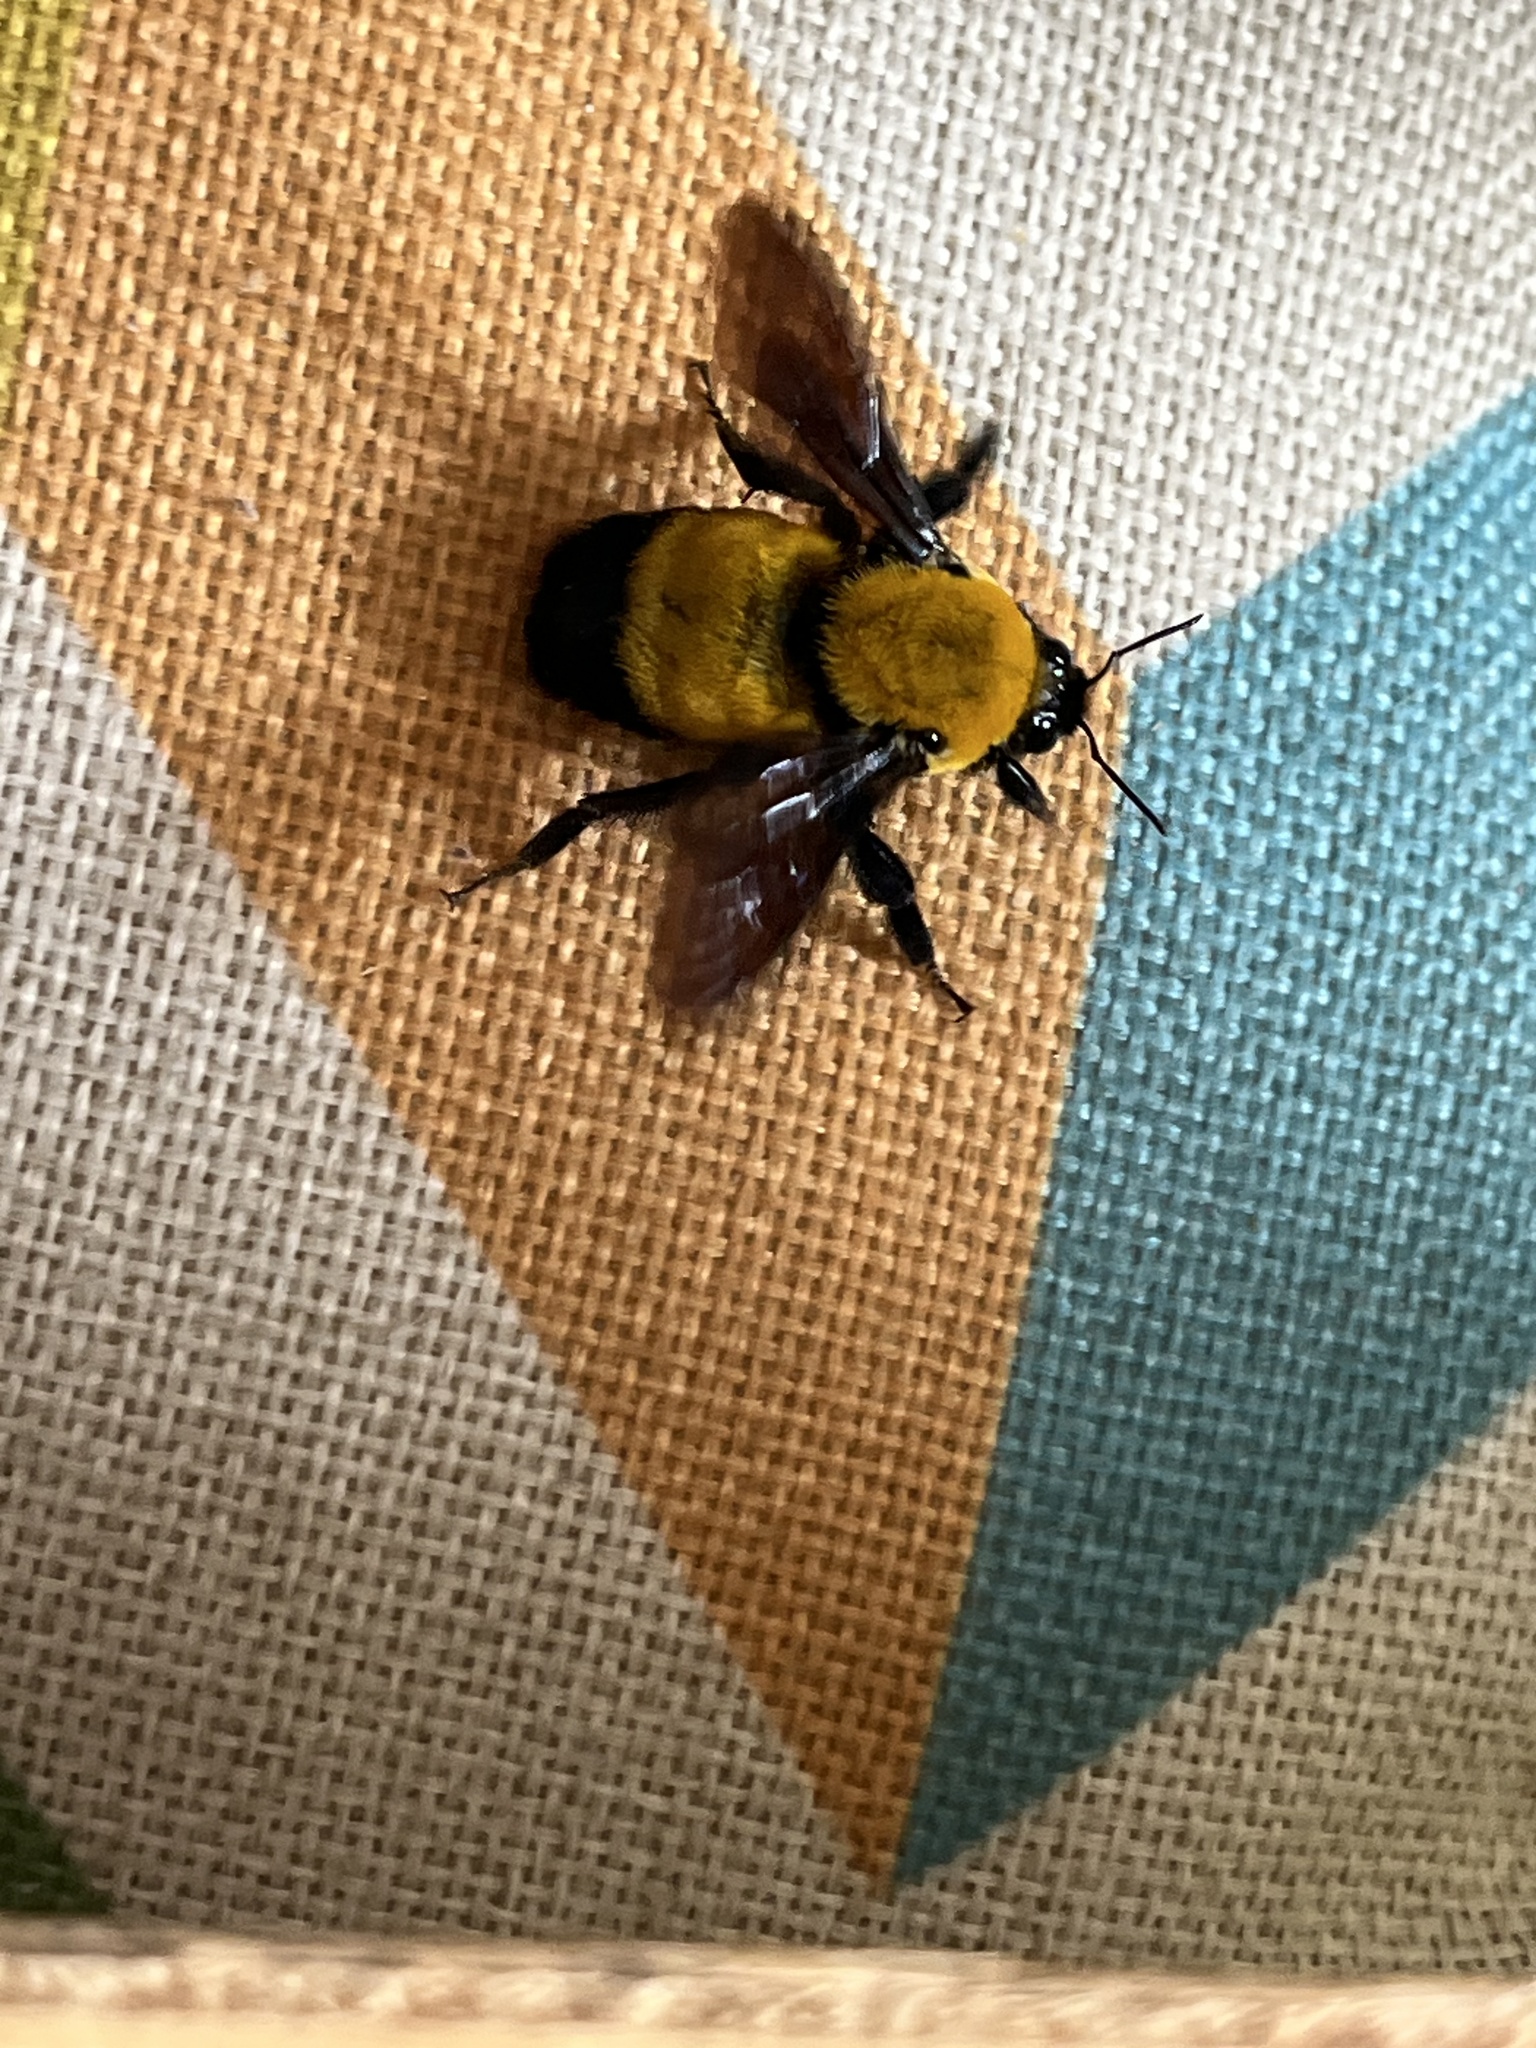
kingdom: Animalia
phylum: Arthropoda
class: Insecta
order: Hymenoptera
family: Apidae
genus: Bombus
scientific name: Bombus morrisoni
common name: Morrison bumble bee
